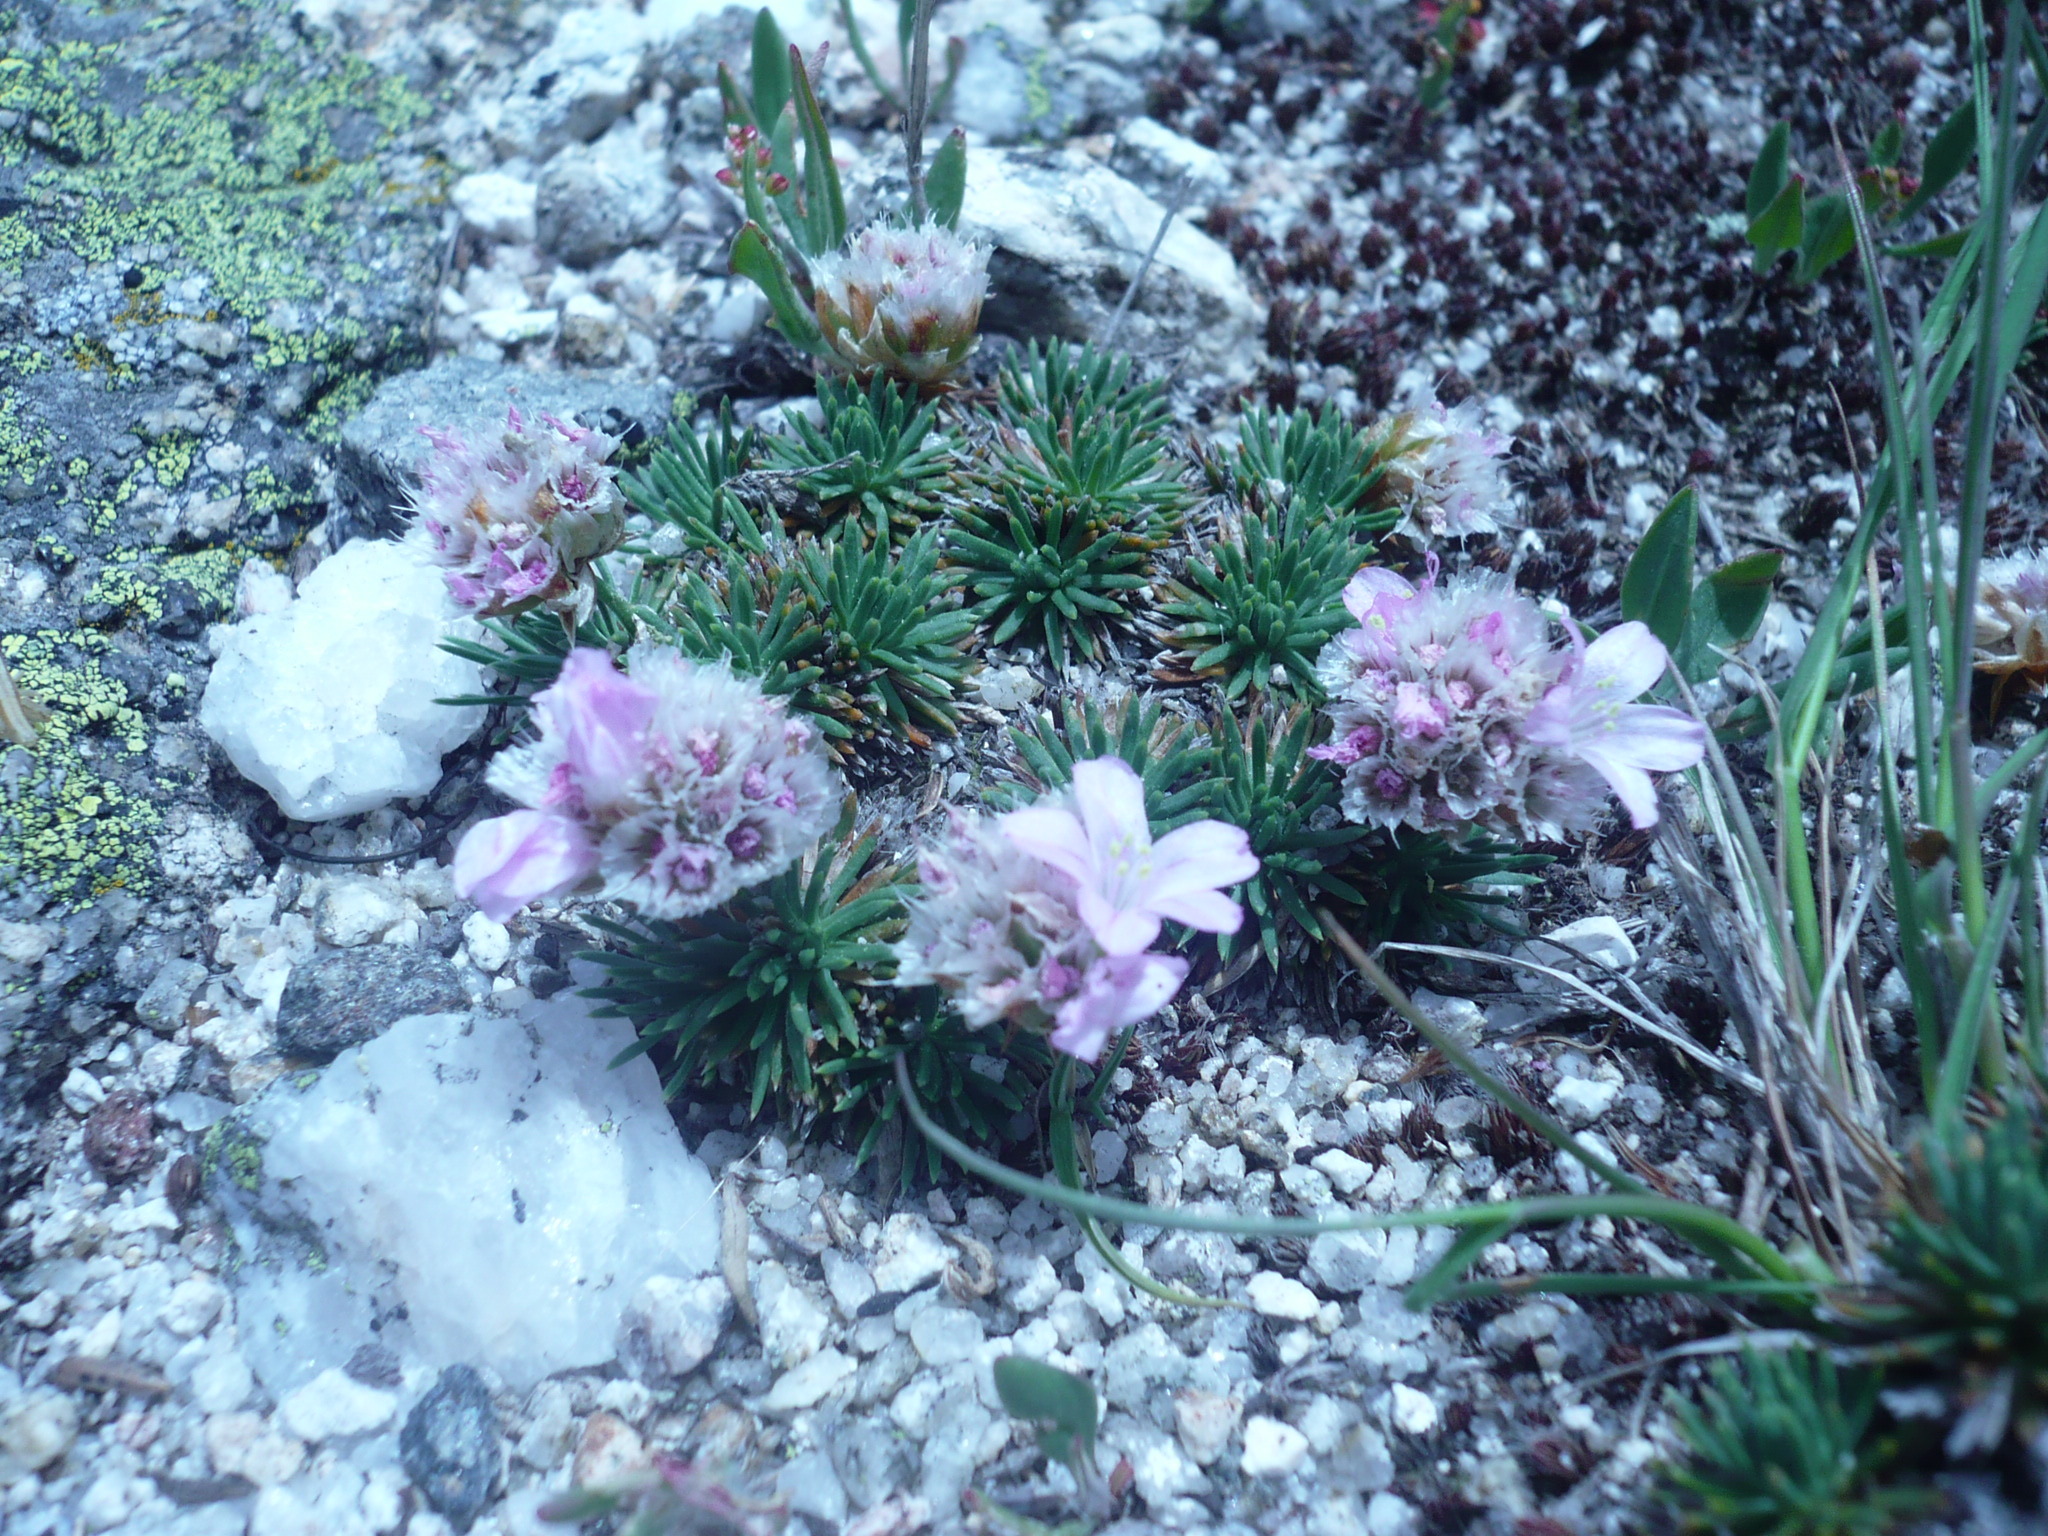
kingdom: Plantae
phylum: Tracheophyta
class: Magnoliopsida
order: Caryophyllales
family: Plumbaginaceae
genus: Armeria
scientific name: Armeria caespitosa
